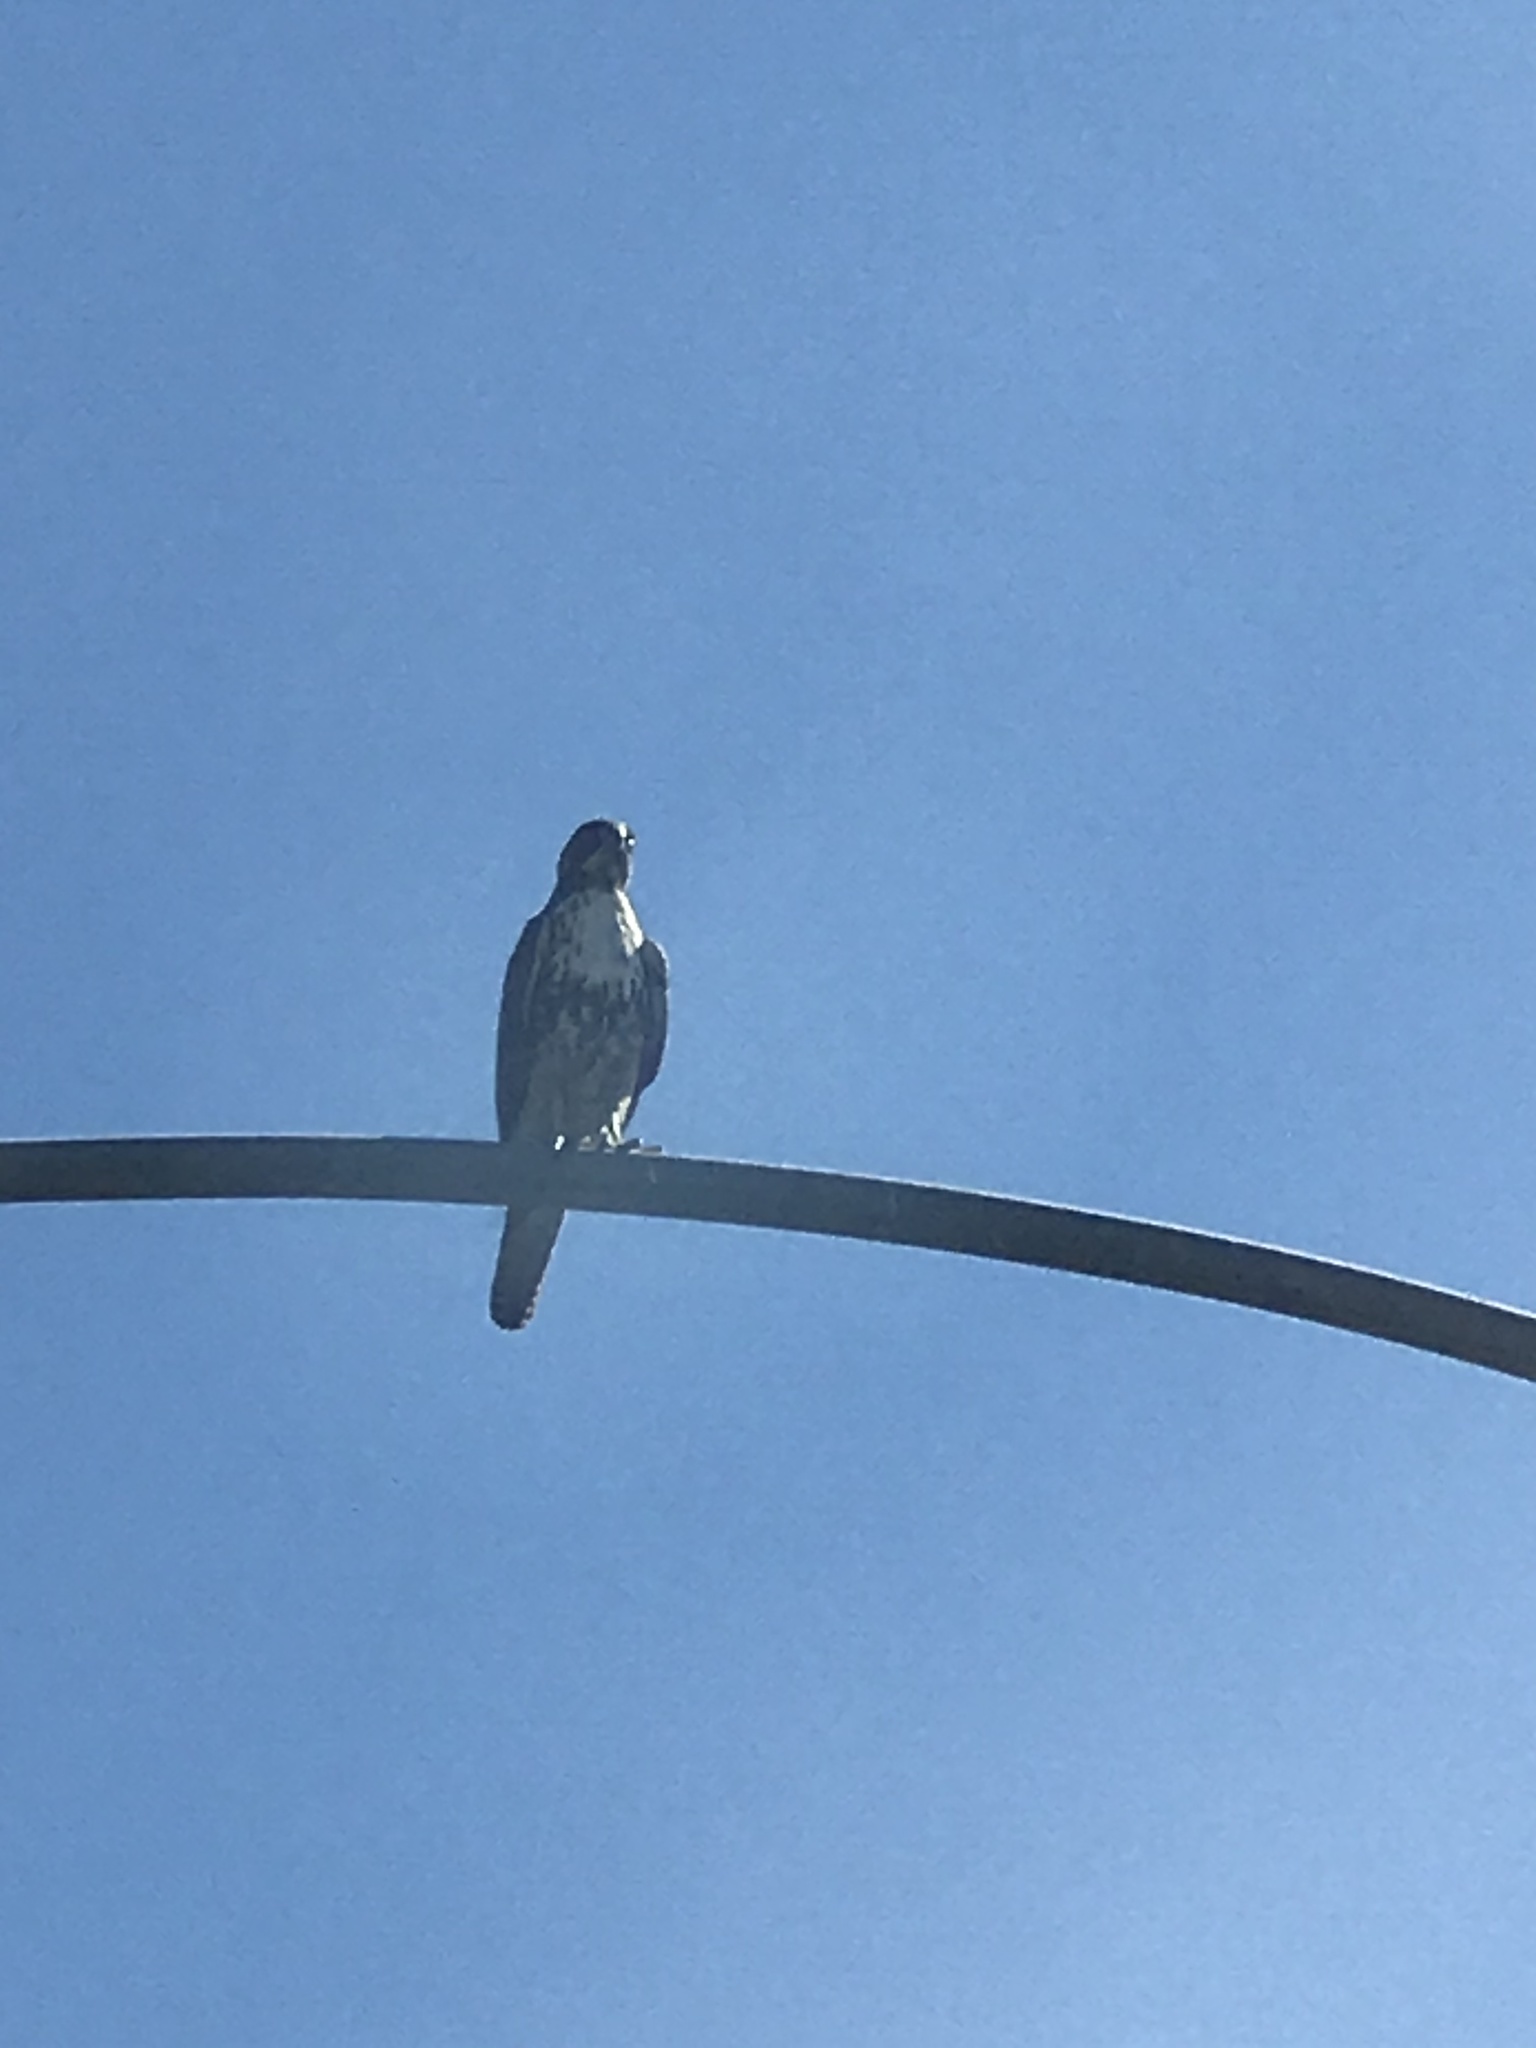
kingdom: Animalia
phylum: Chordata
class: Aves
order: Accipitriformes
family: Accipitridae
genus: Buteo
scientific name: Buteo jamaicensis
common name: Red-tailed hawk
